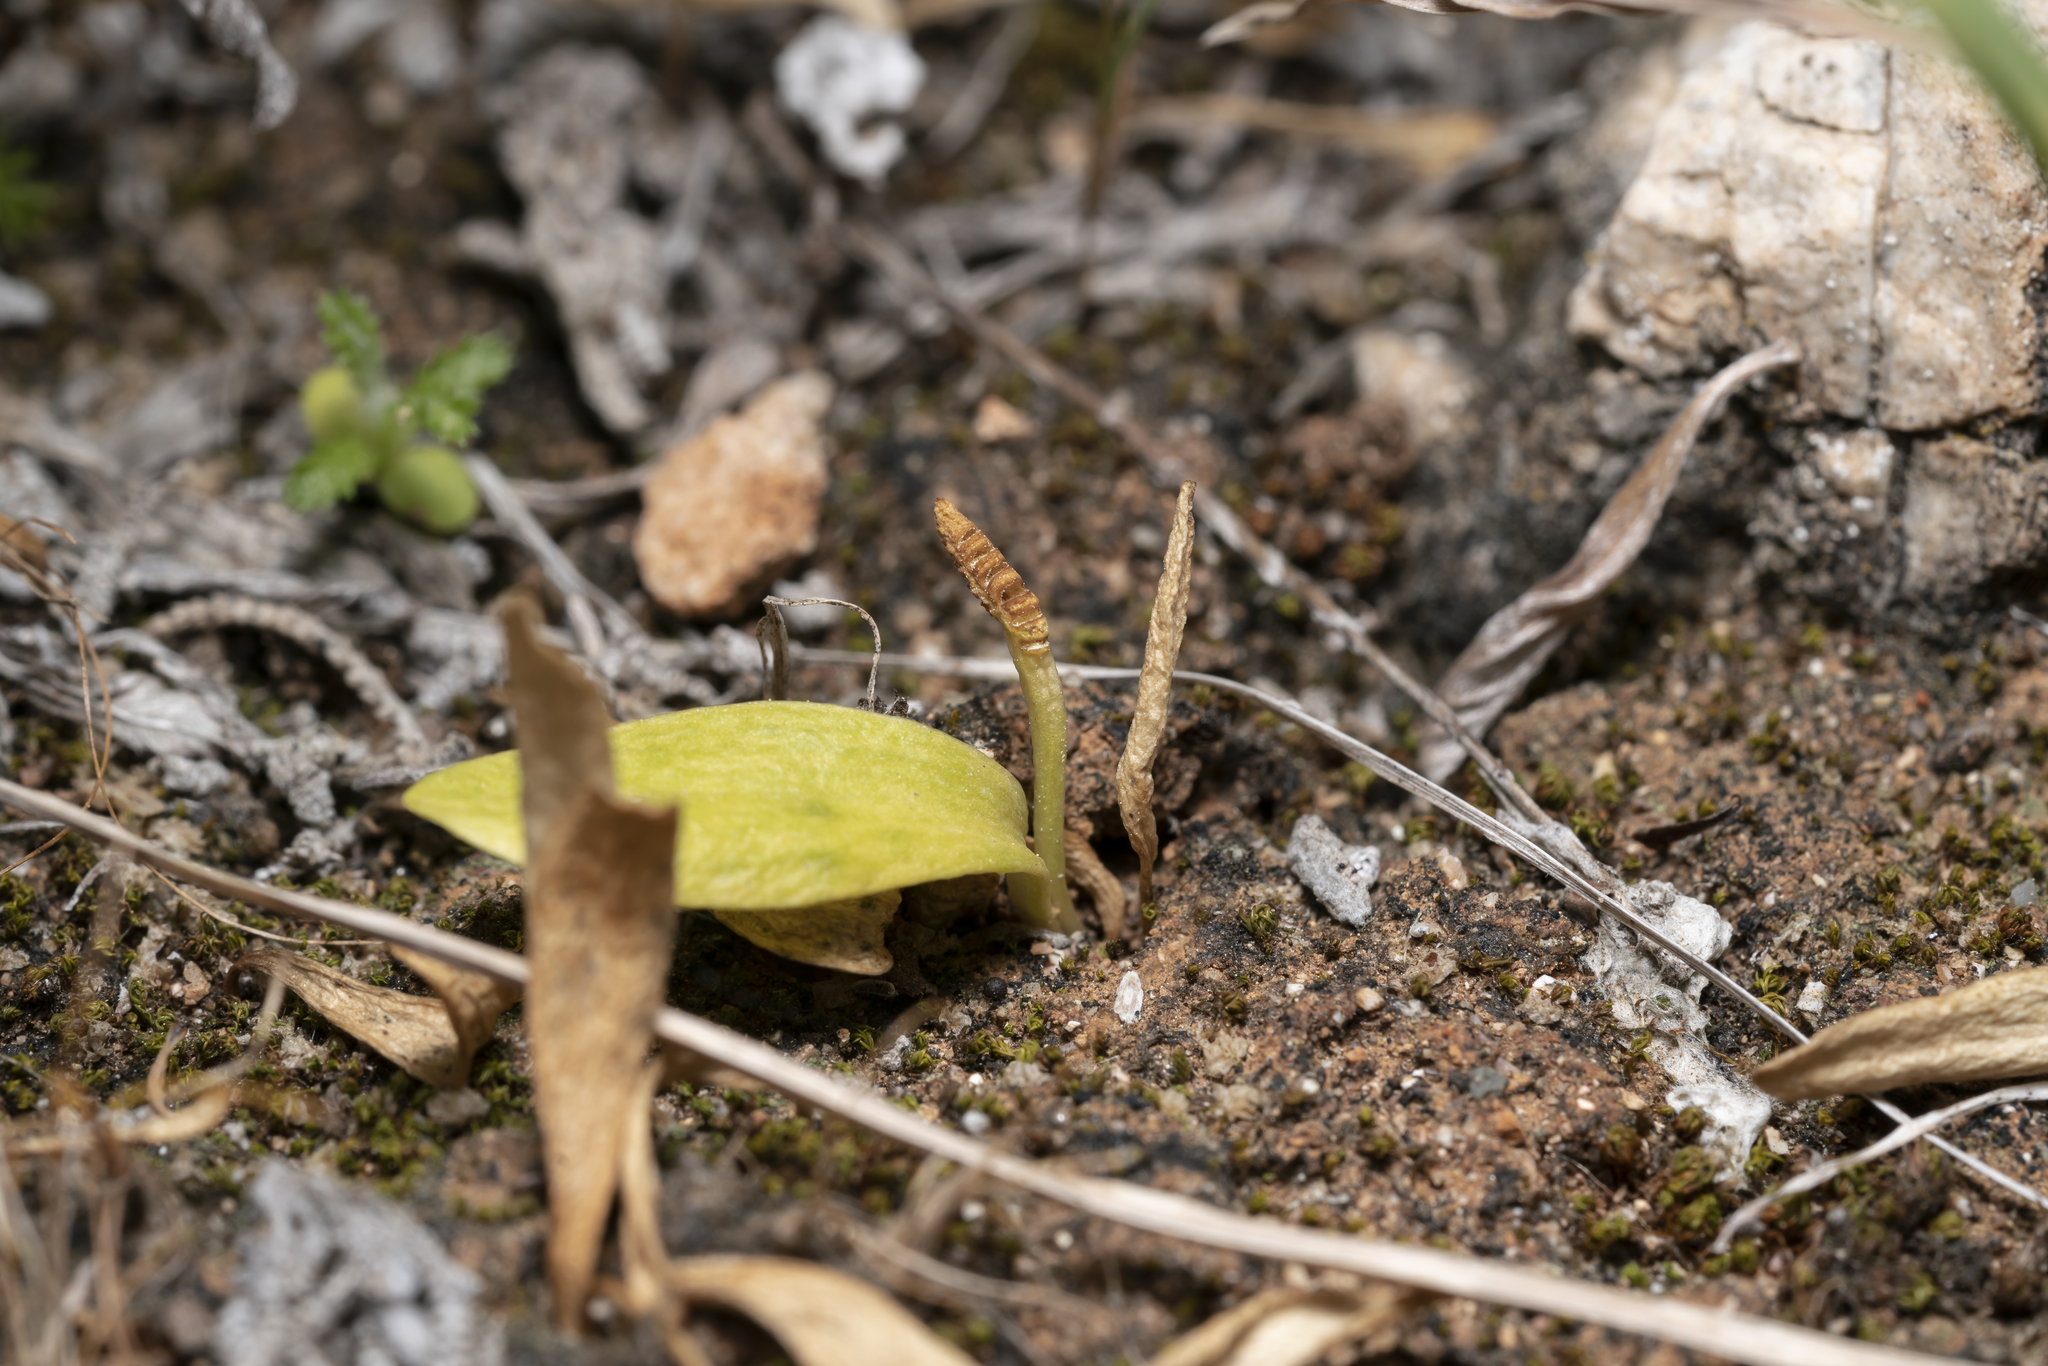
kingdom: Plantae
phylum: Tracheophyta
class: Polypodiopsida
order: Ophioglossales
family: Ophioglossaceae
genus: Ophioglossum
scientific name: Ophioglossum lusitanicum
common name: Least adder's-tongue
